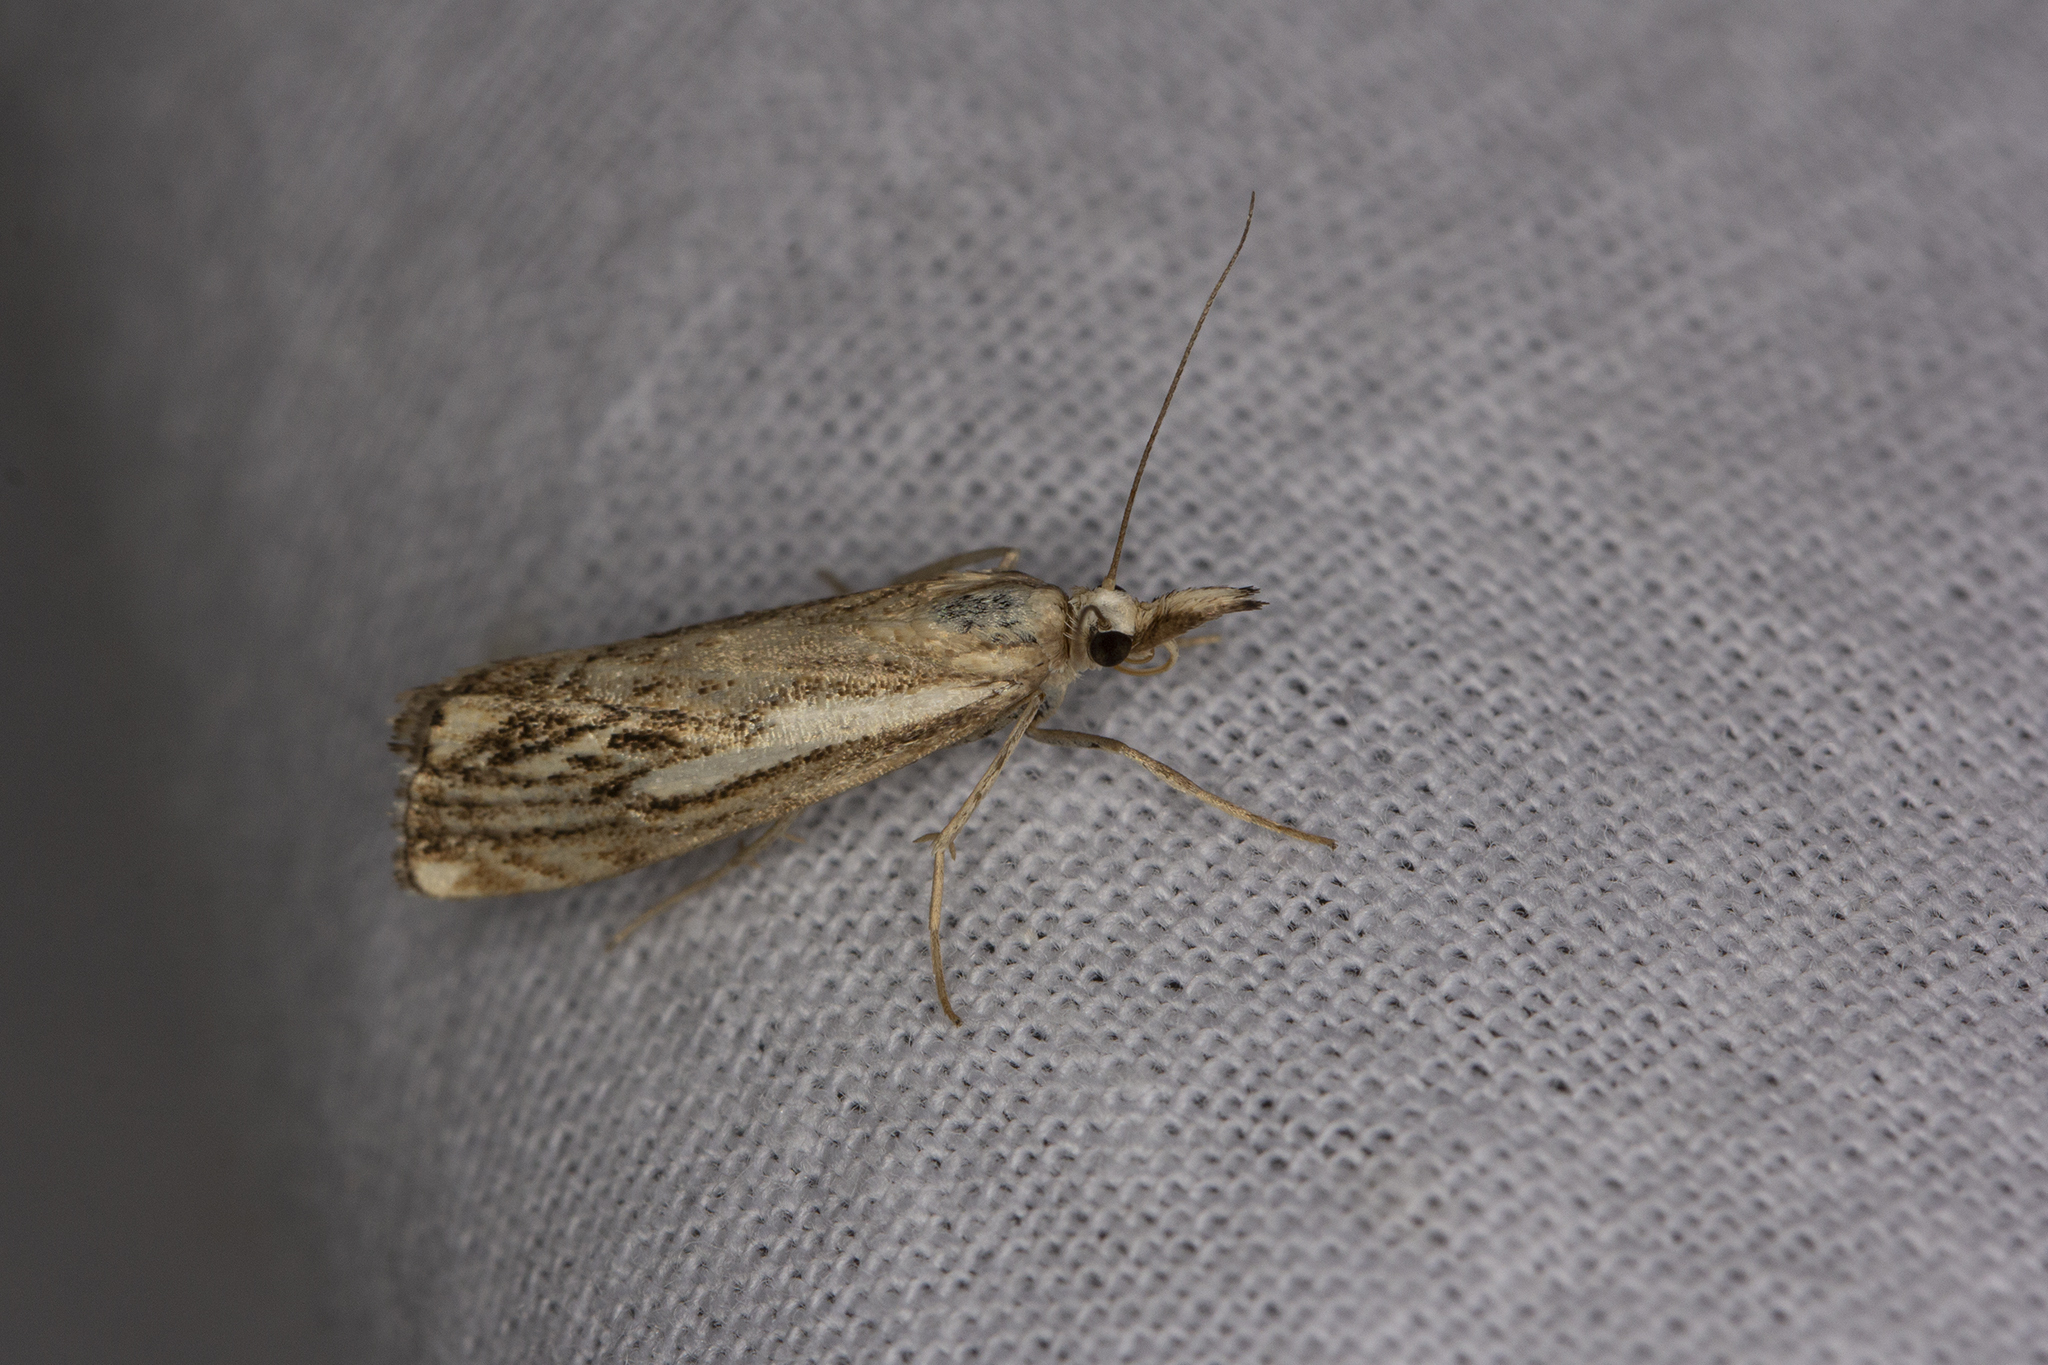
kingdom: Animalia
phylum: Arthropoda
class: Insecta
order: Lepidoptera
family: Crambidae
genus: Catoptria
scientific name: Catoptria falsella
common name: Chequered grass-veneer
